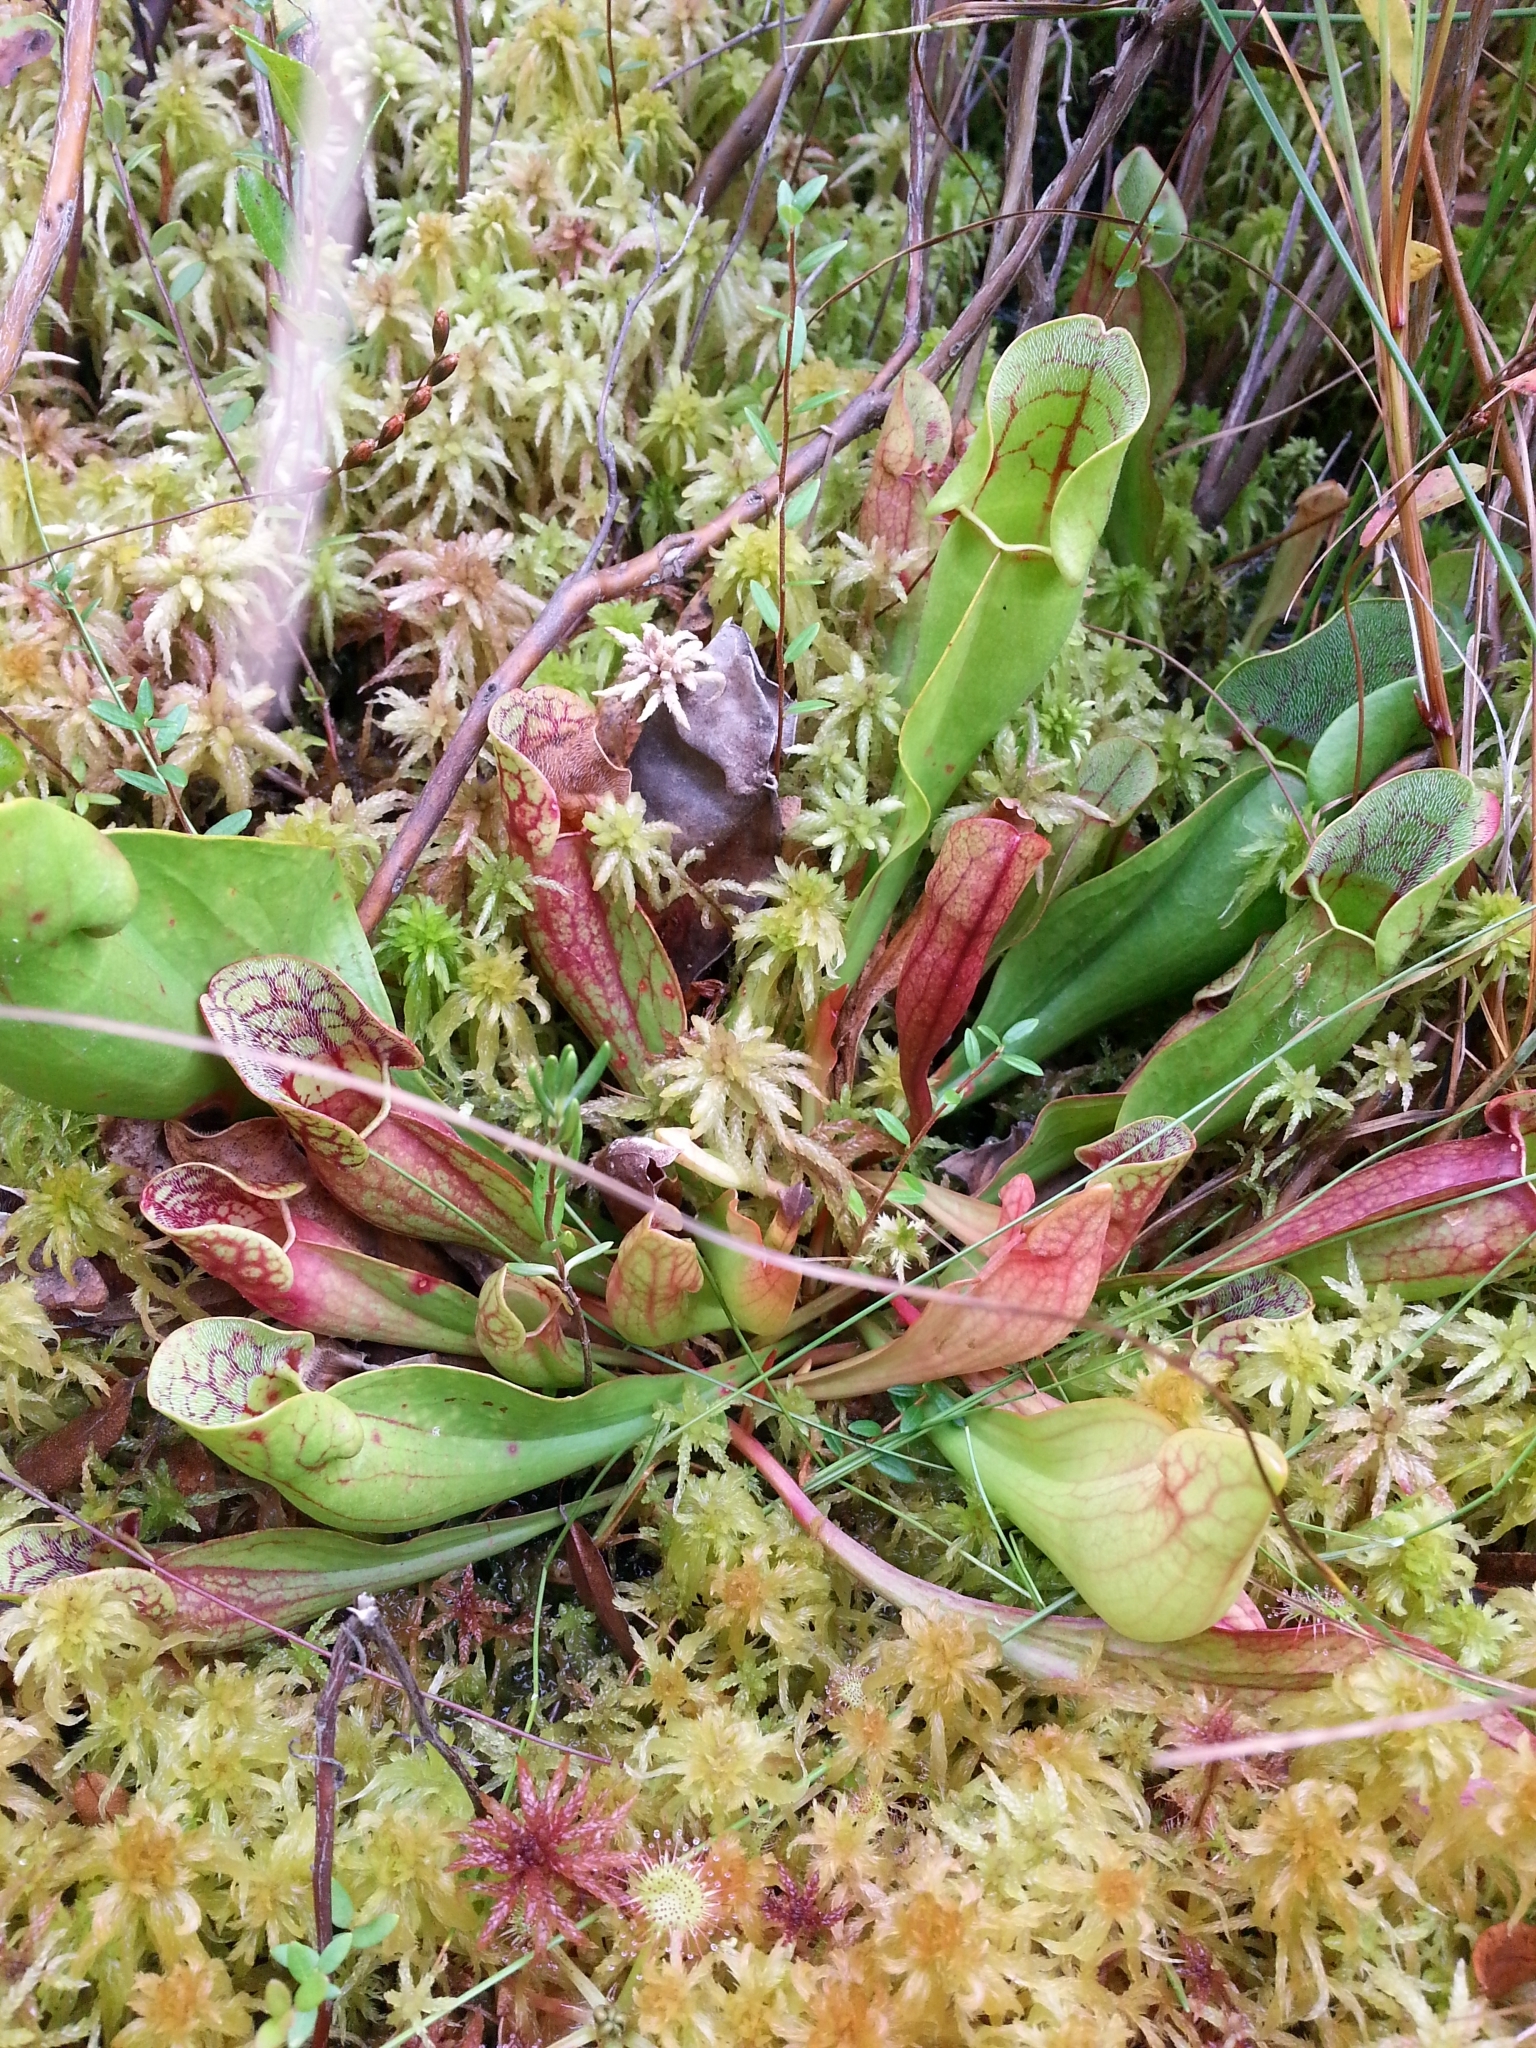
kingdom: Plantae
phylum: Tracheophyta
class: Magnoliopsida
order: Ericales
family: Sarraceniaceae
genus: Sarracenia
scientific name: Sarracenia purpurea
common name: Pitcherplant
